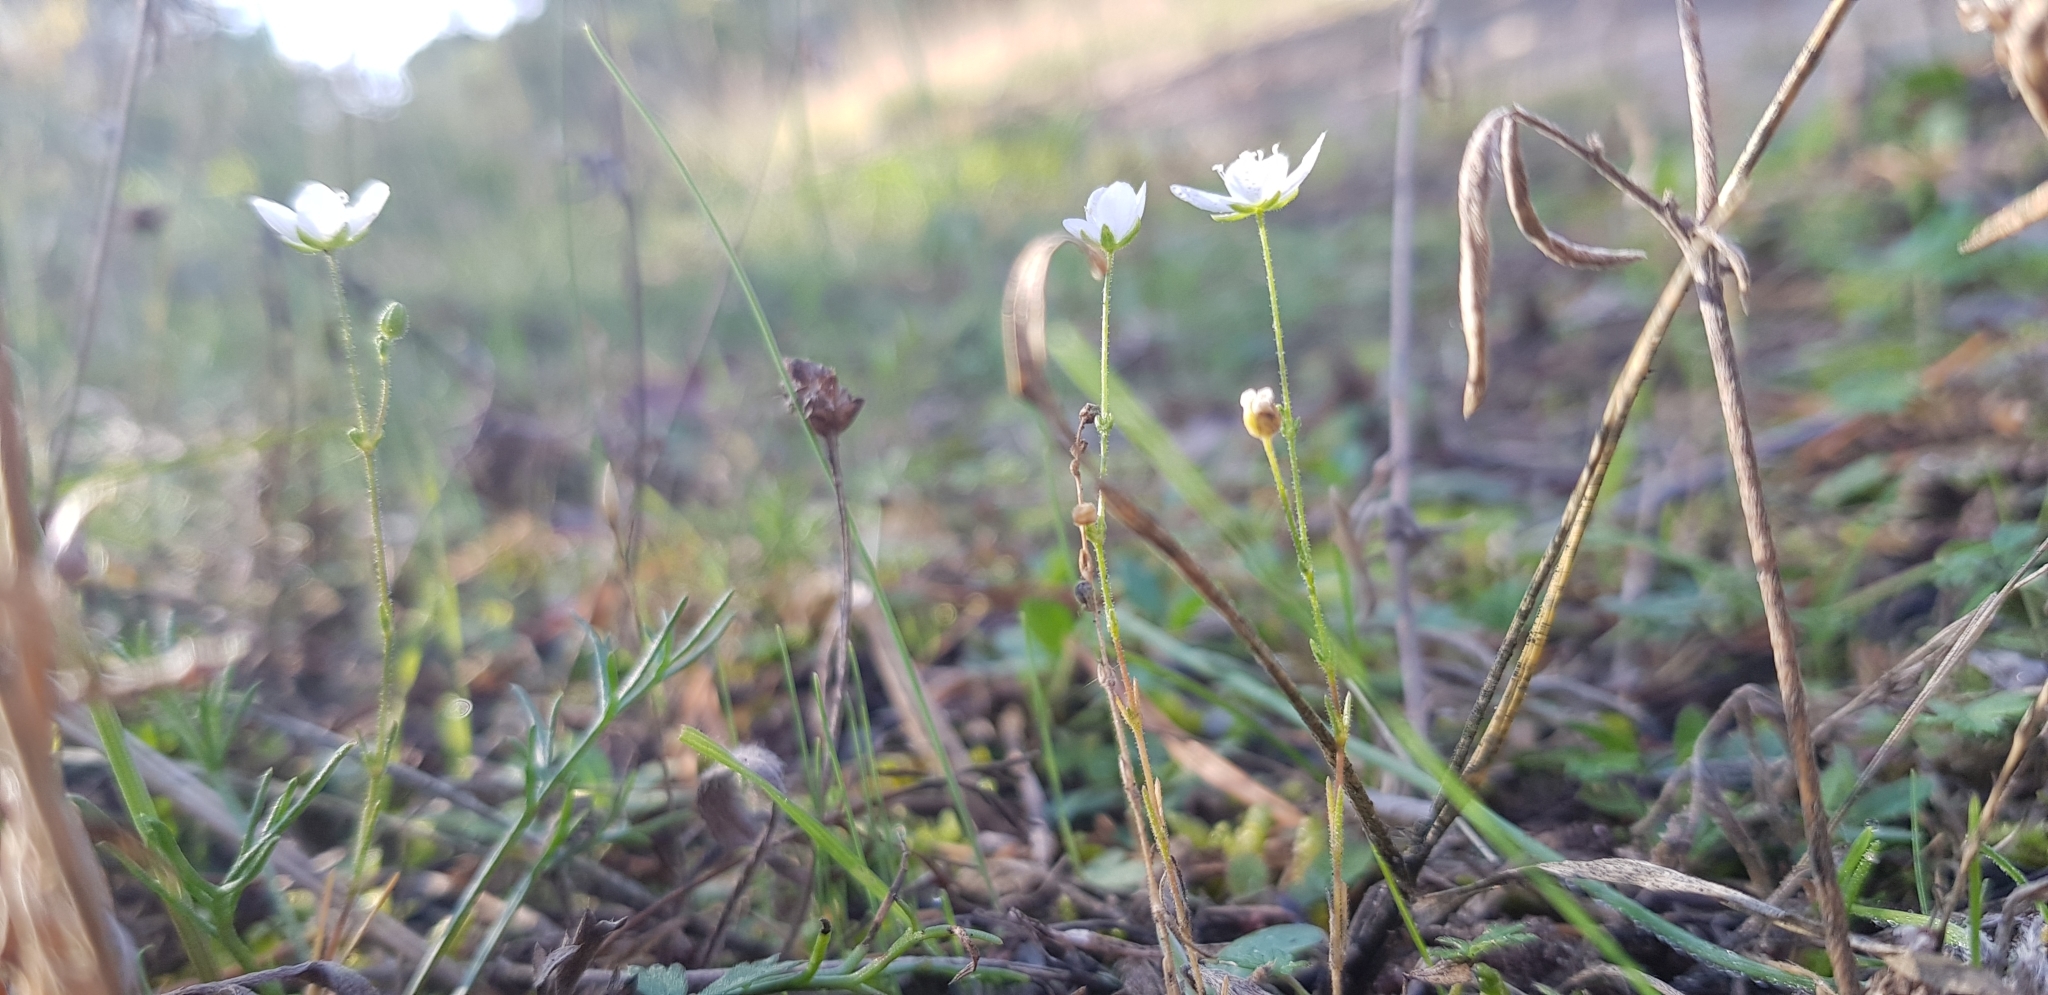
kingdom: Plantae
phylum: Tracheophyta
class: Magnoliopsida
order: Caryophyllales
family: Caryophyllaceae
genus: Sagina
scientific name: Sagina nodosa
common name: Knotted pearlwort
